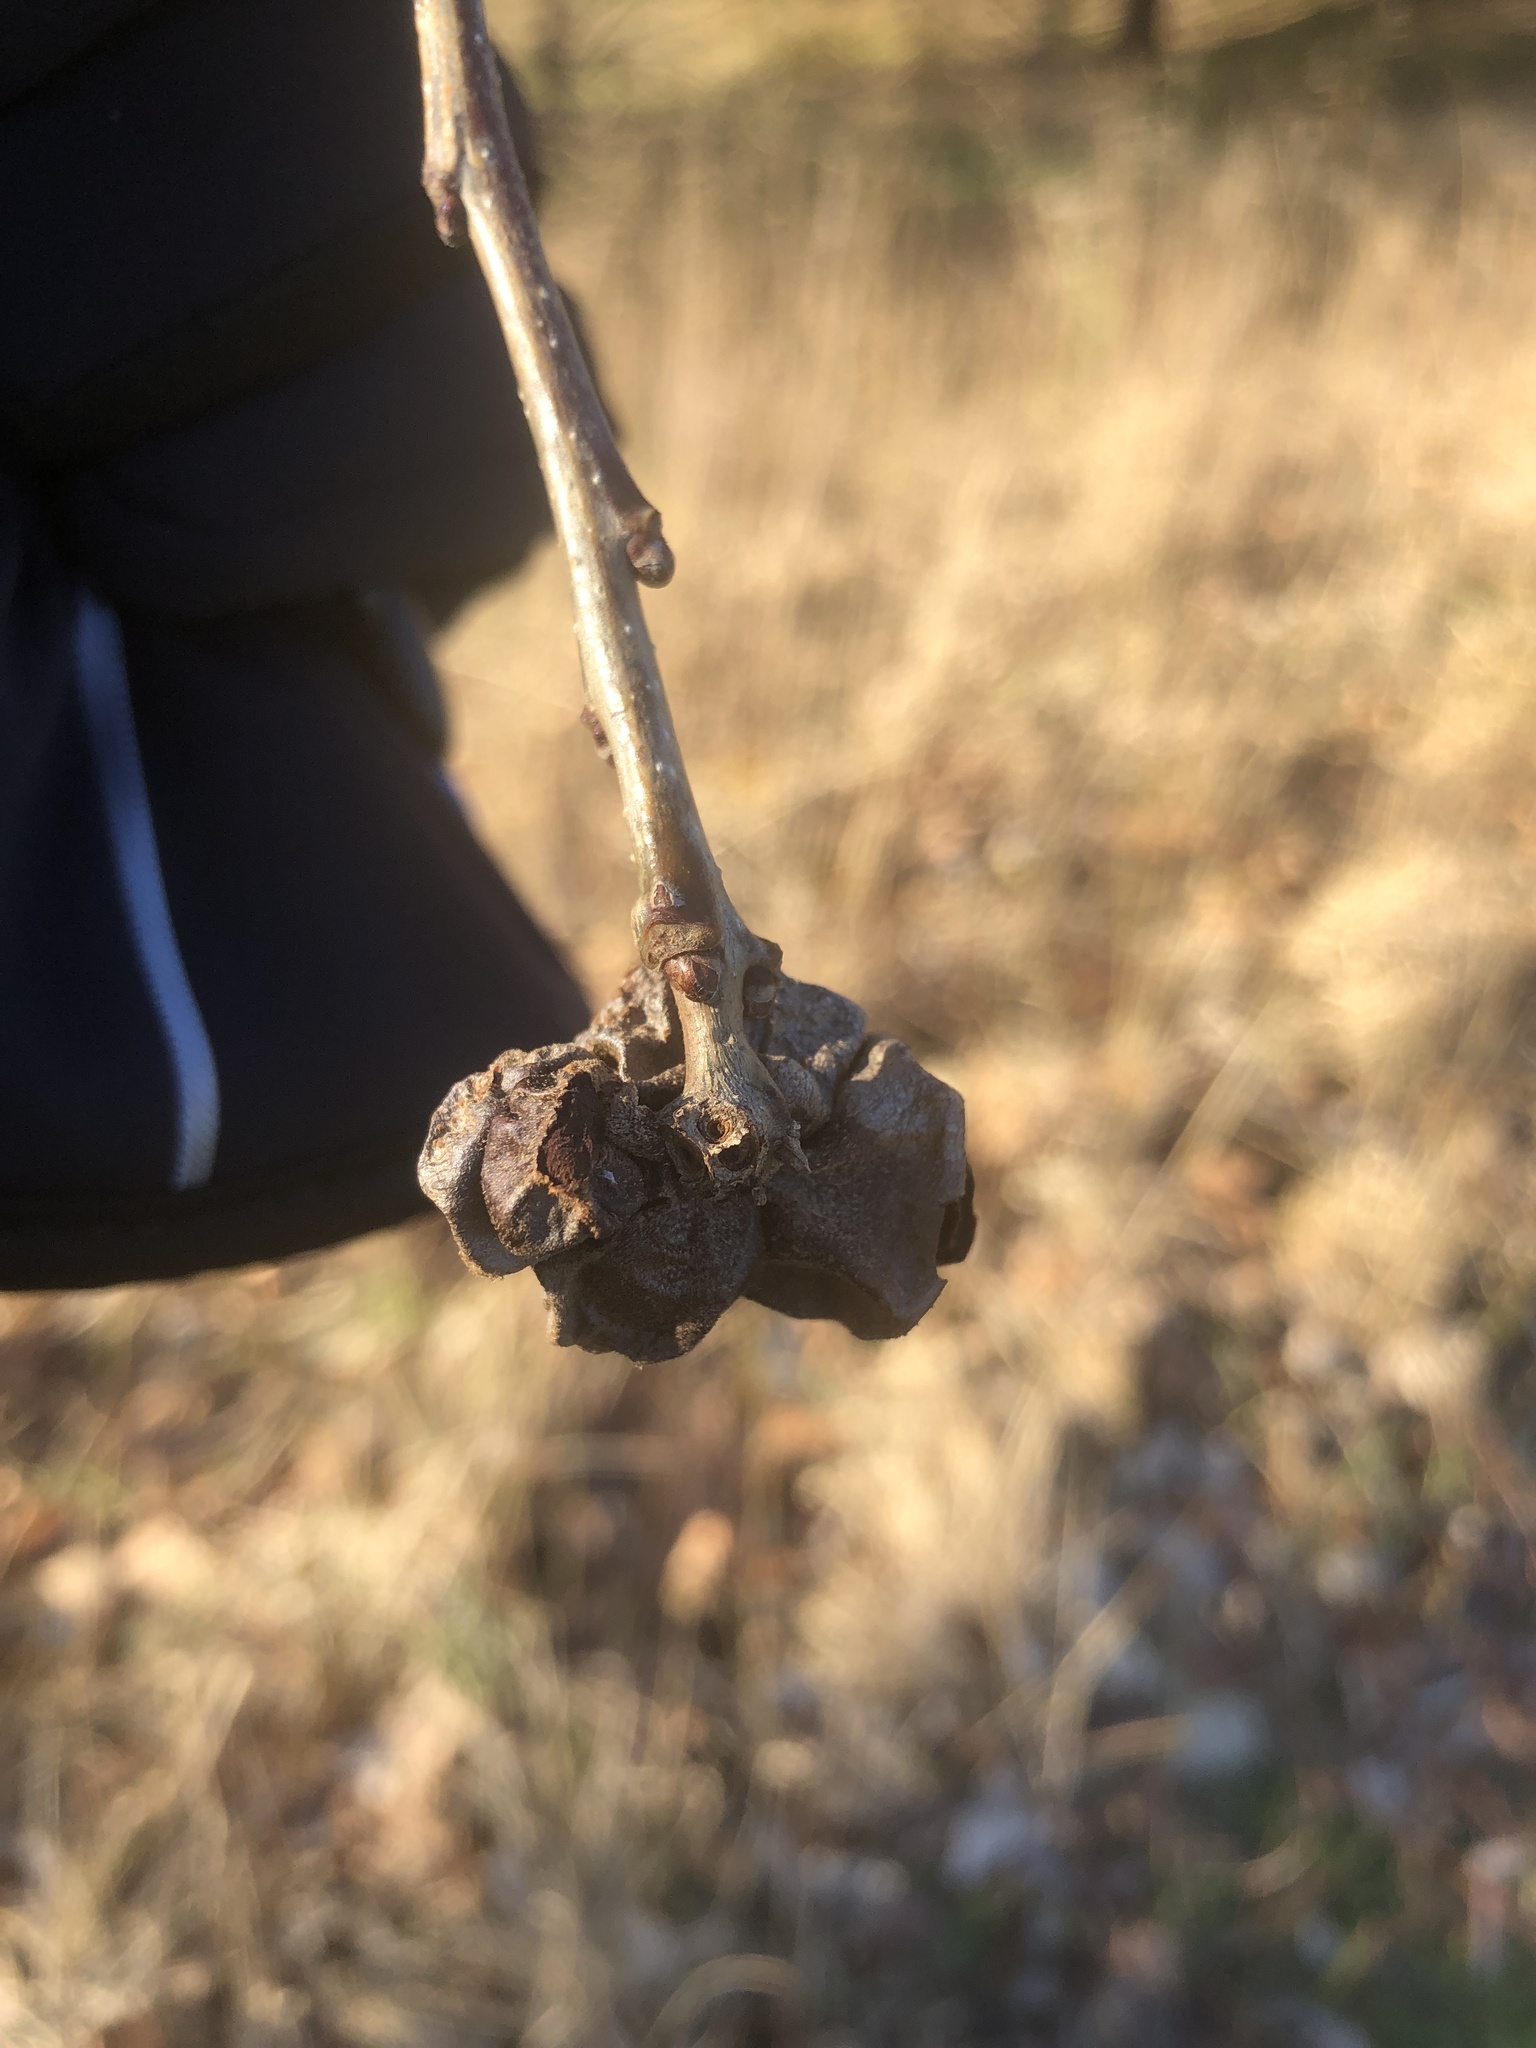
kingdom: Animalia
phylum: Arthropoda
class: Insecta
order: Hymenoptera
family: Cynipidae
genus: Andricus
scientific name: Andricus
